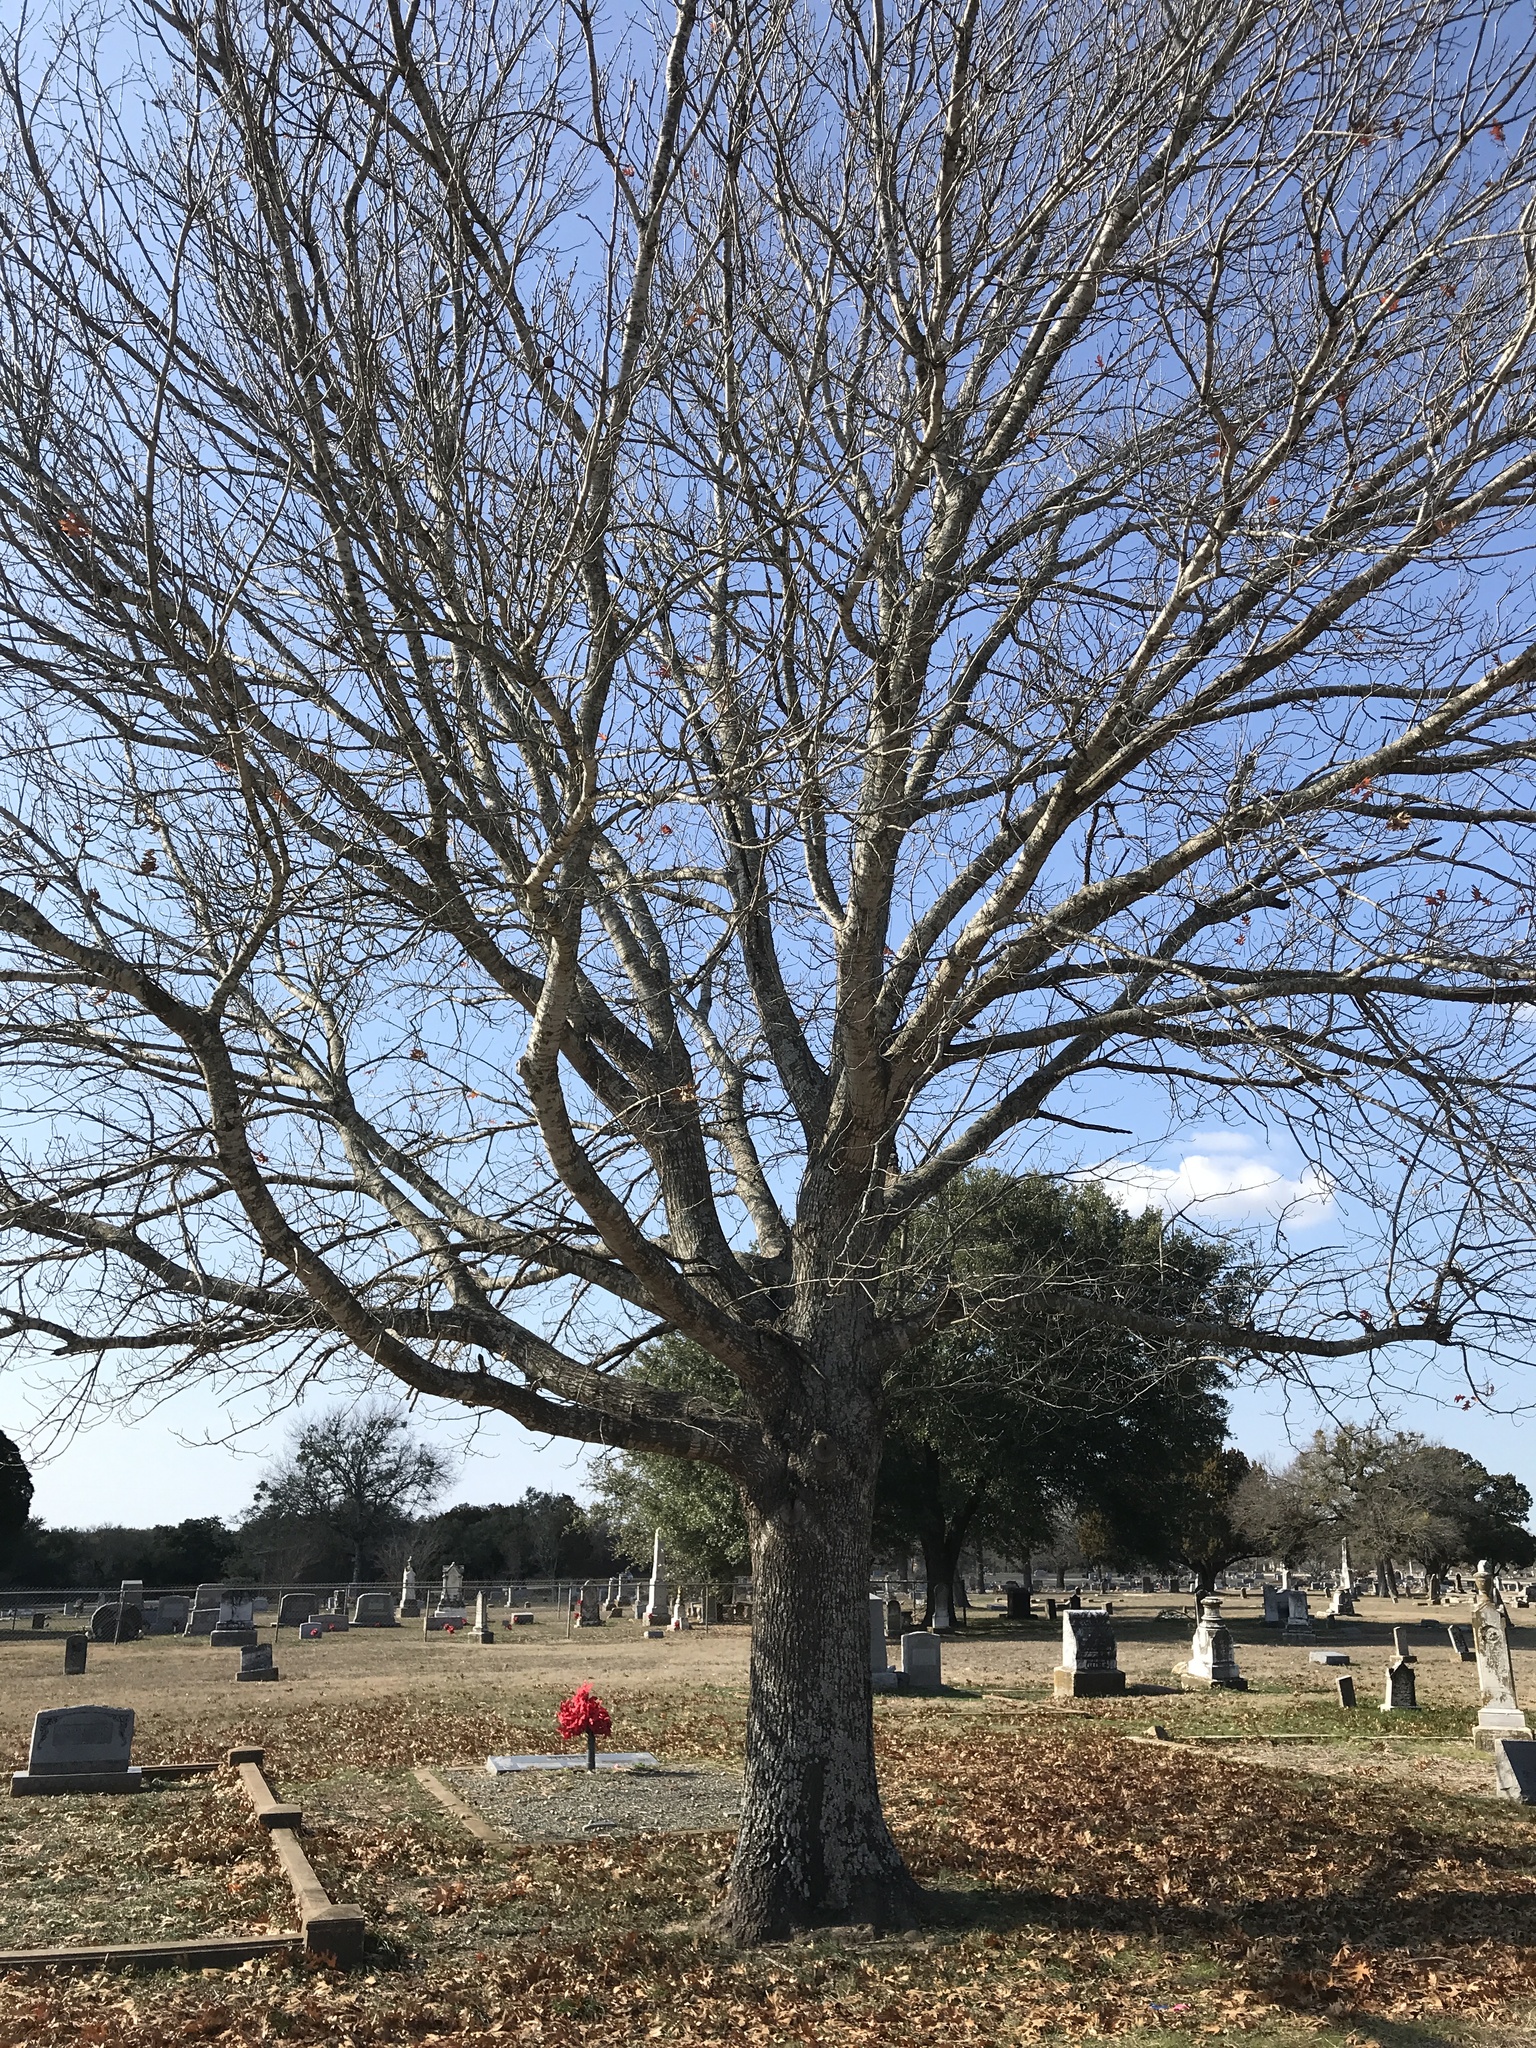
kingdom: Plantae
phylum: Tracheophyta
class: Magnoliopsida
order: Fagales
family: Fagaceae
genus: Quercus
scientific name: Quercus shumardii
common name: Shumard oak
